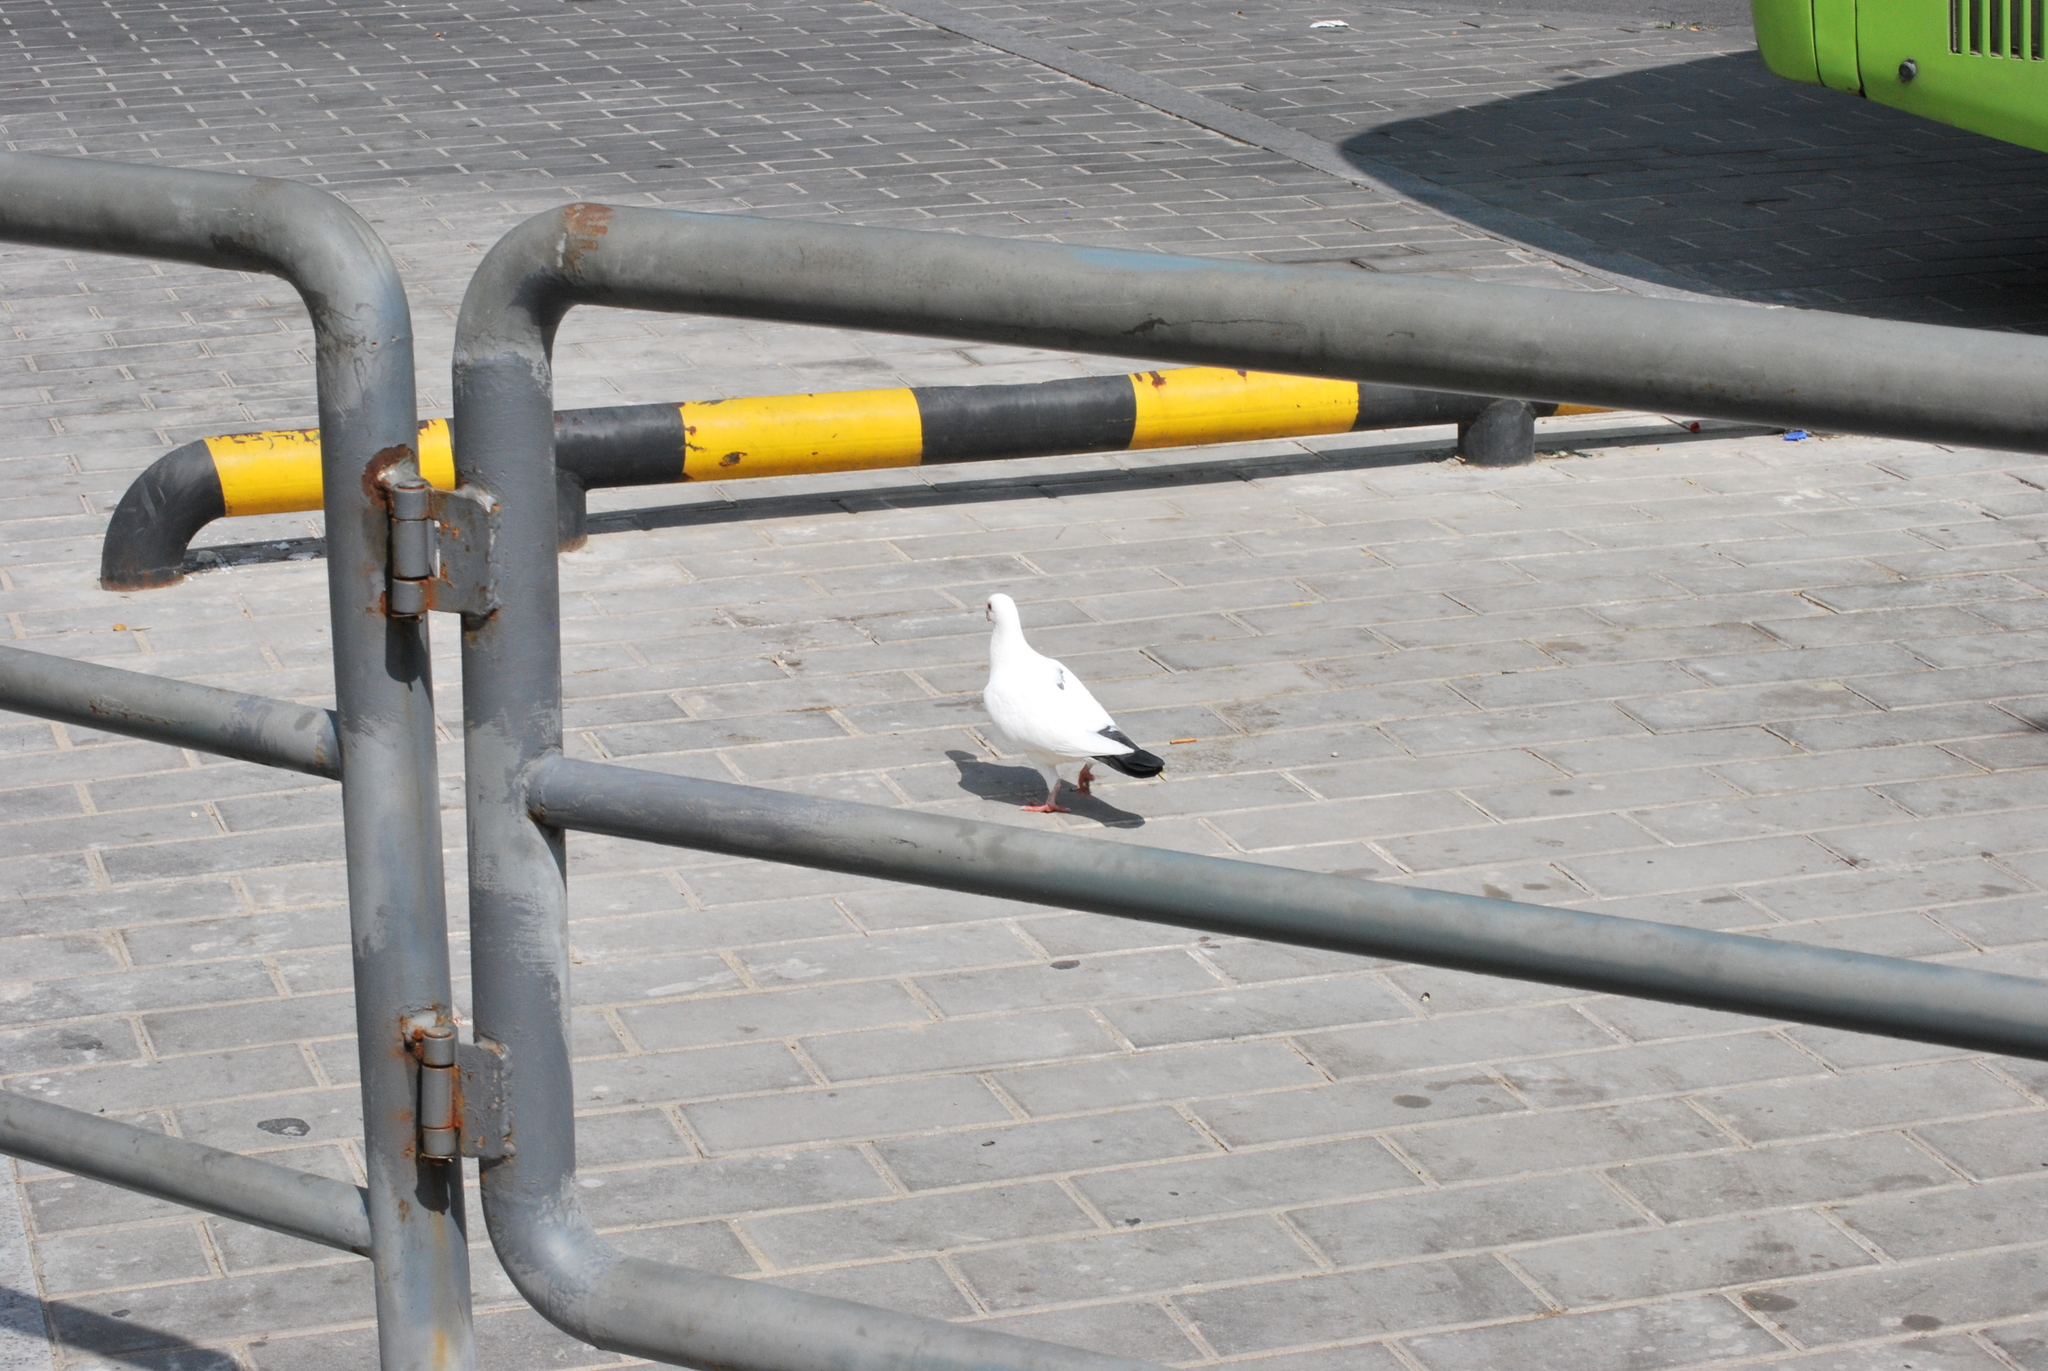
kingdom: Animalia
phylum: Chordata
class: Aves
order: Columbiformes
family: Columbidae
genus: Columba
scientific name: Columba livia
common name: Rock pigeon
